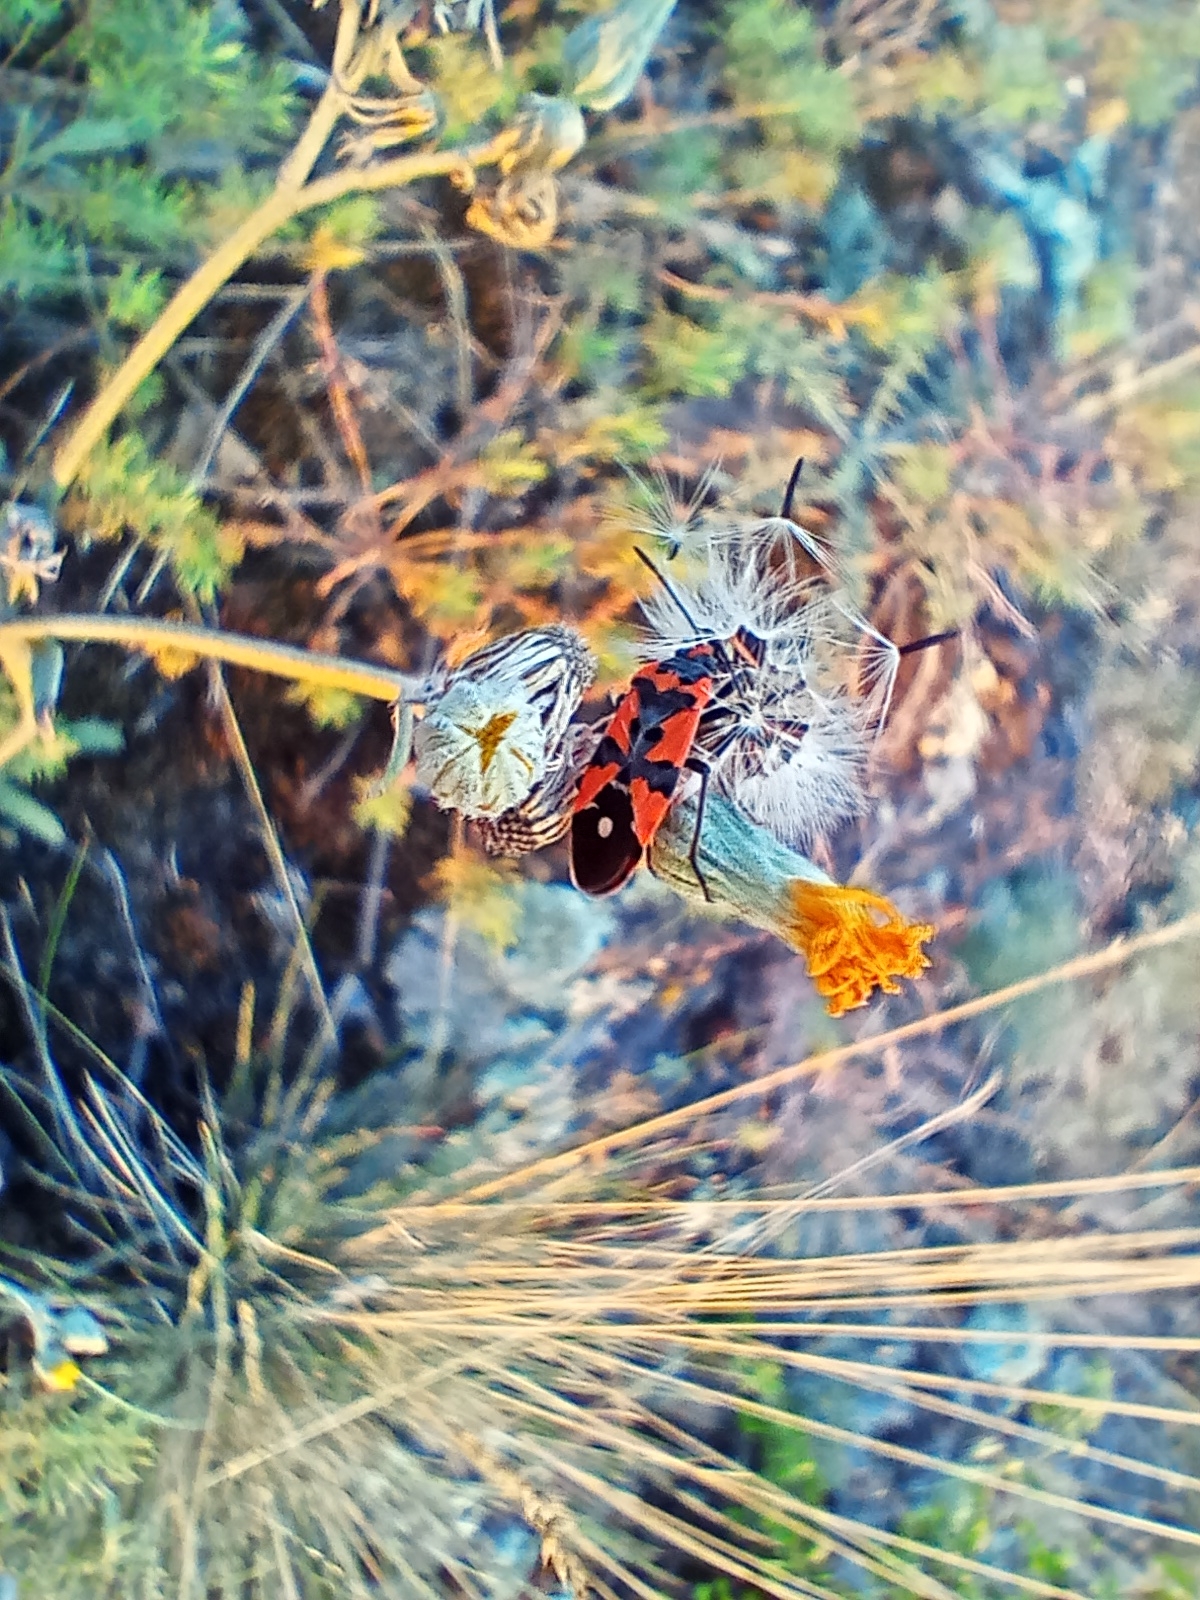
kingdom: Animalia
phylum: Arthropoda
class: Insecta
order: Hemiptera
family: Lygaeidae
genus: Lygaeus
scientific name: Lygaeus equestris
